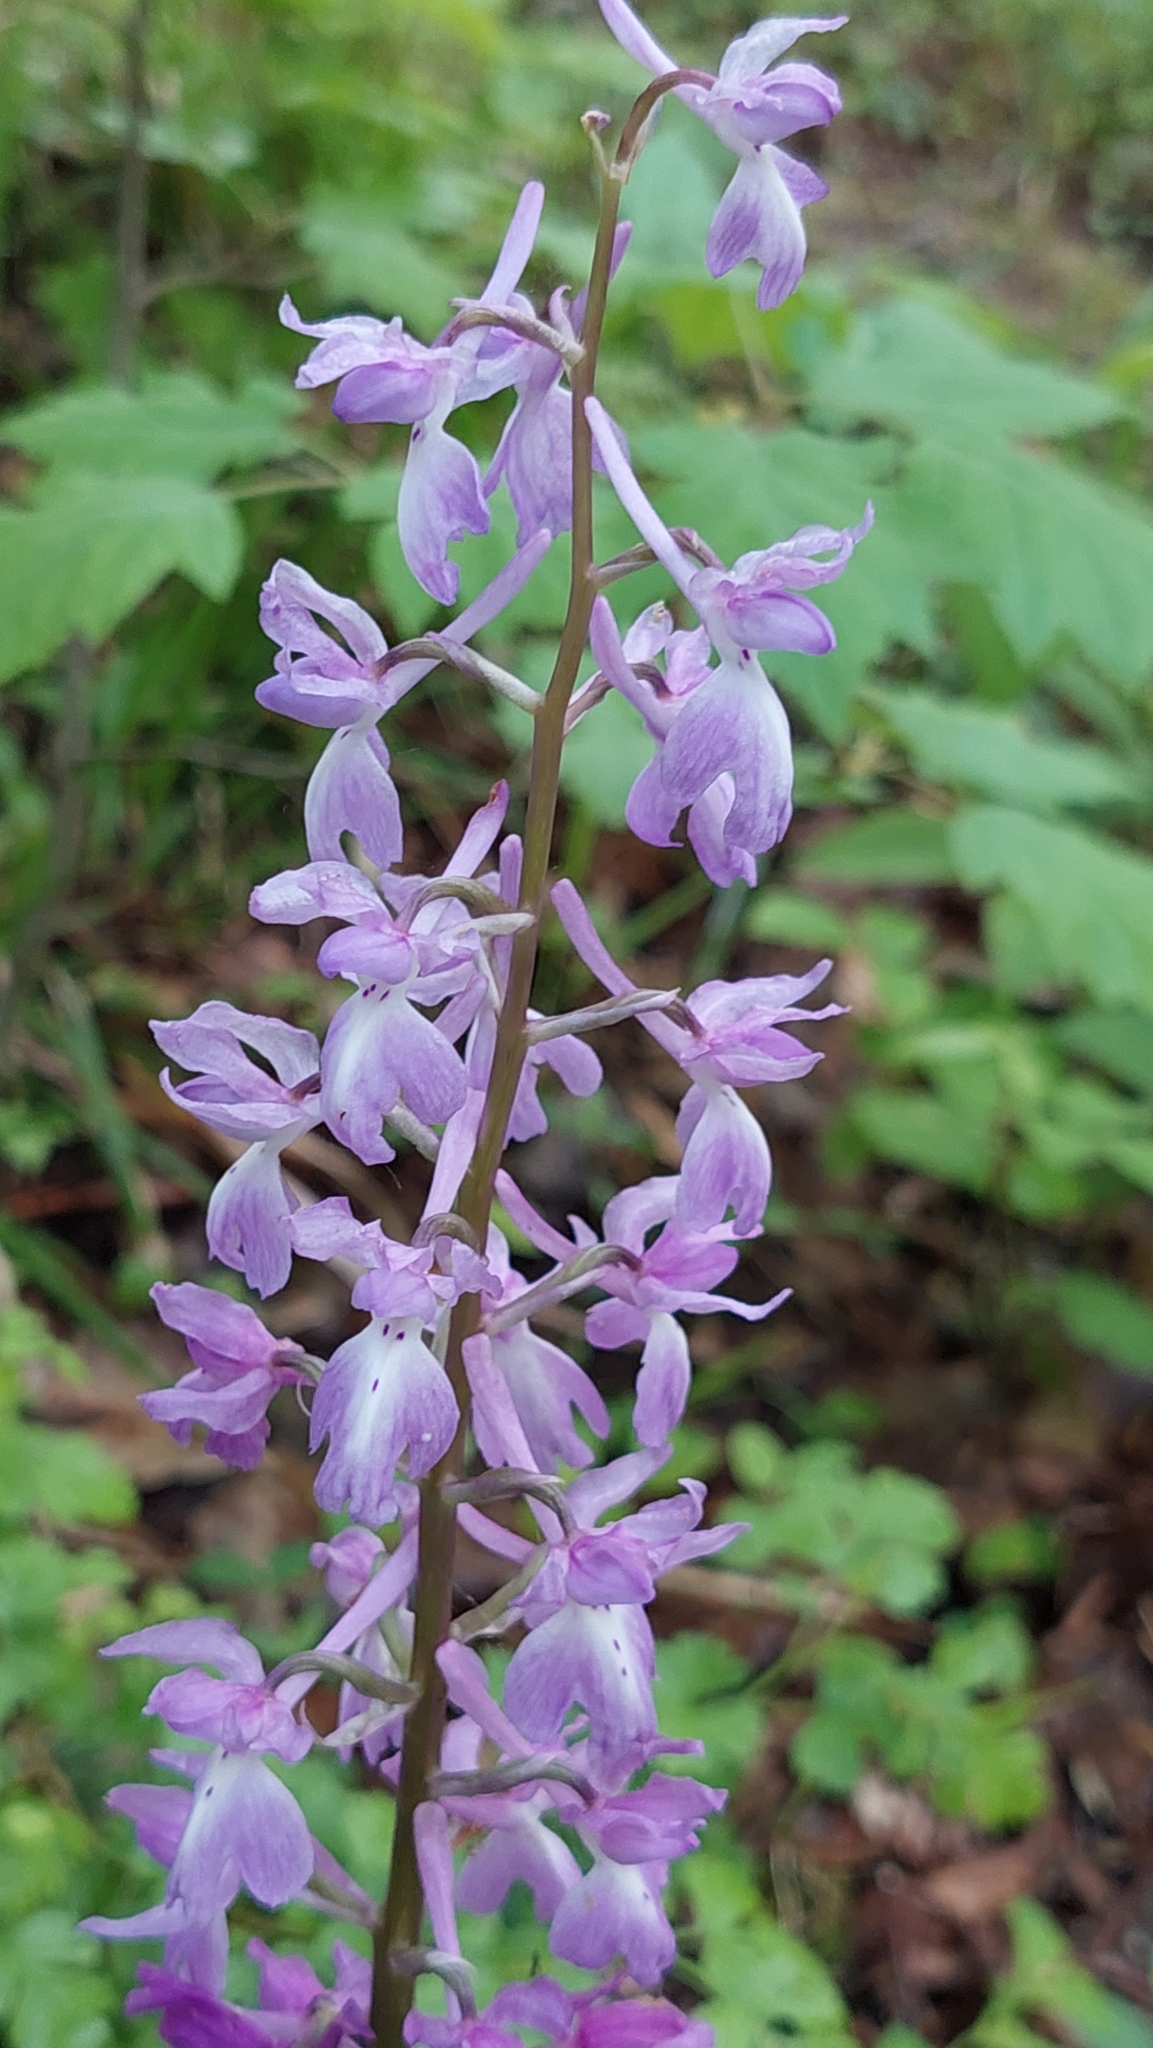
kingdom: Plantae
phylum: Tracheophyta
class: Liliopsida
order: Asparagales
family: Orchidaceae
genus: Orchis
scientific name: Orchis mascula
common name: Early-purple orchid
